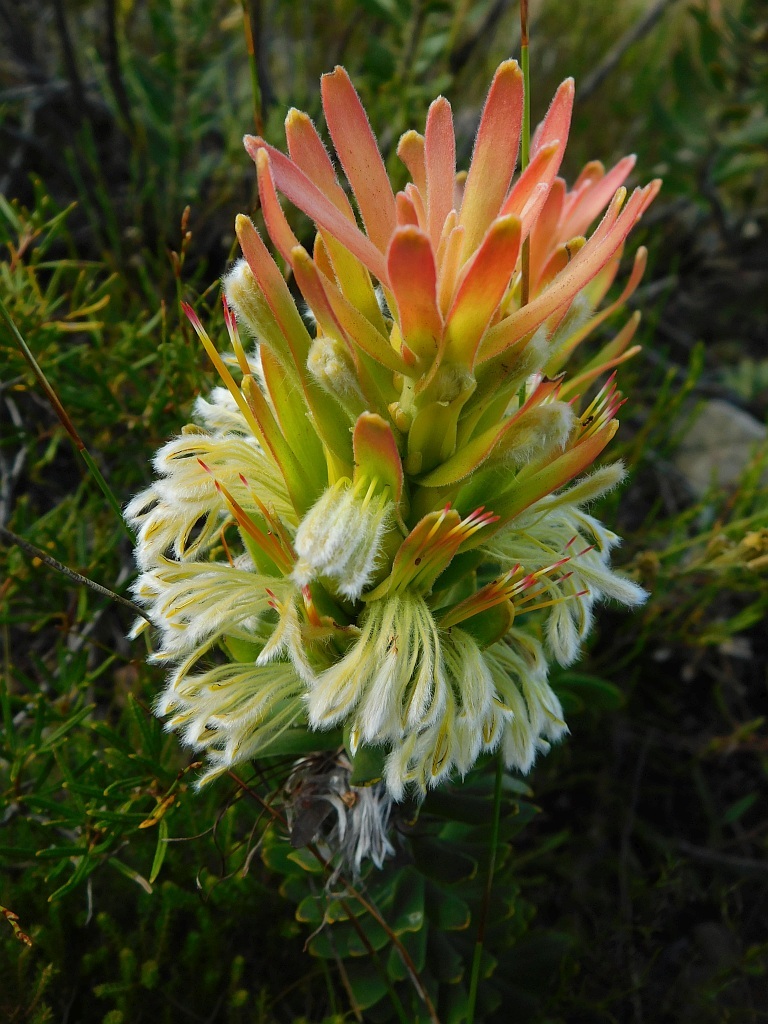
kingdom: Plantae
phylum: Tracheophyta
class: Magnoliopsida
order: Proteales
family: Proteaceae
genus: Mimetes
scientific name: Mimetes cucullatus
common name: Common pagoda
